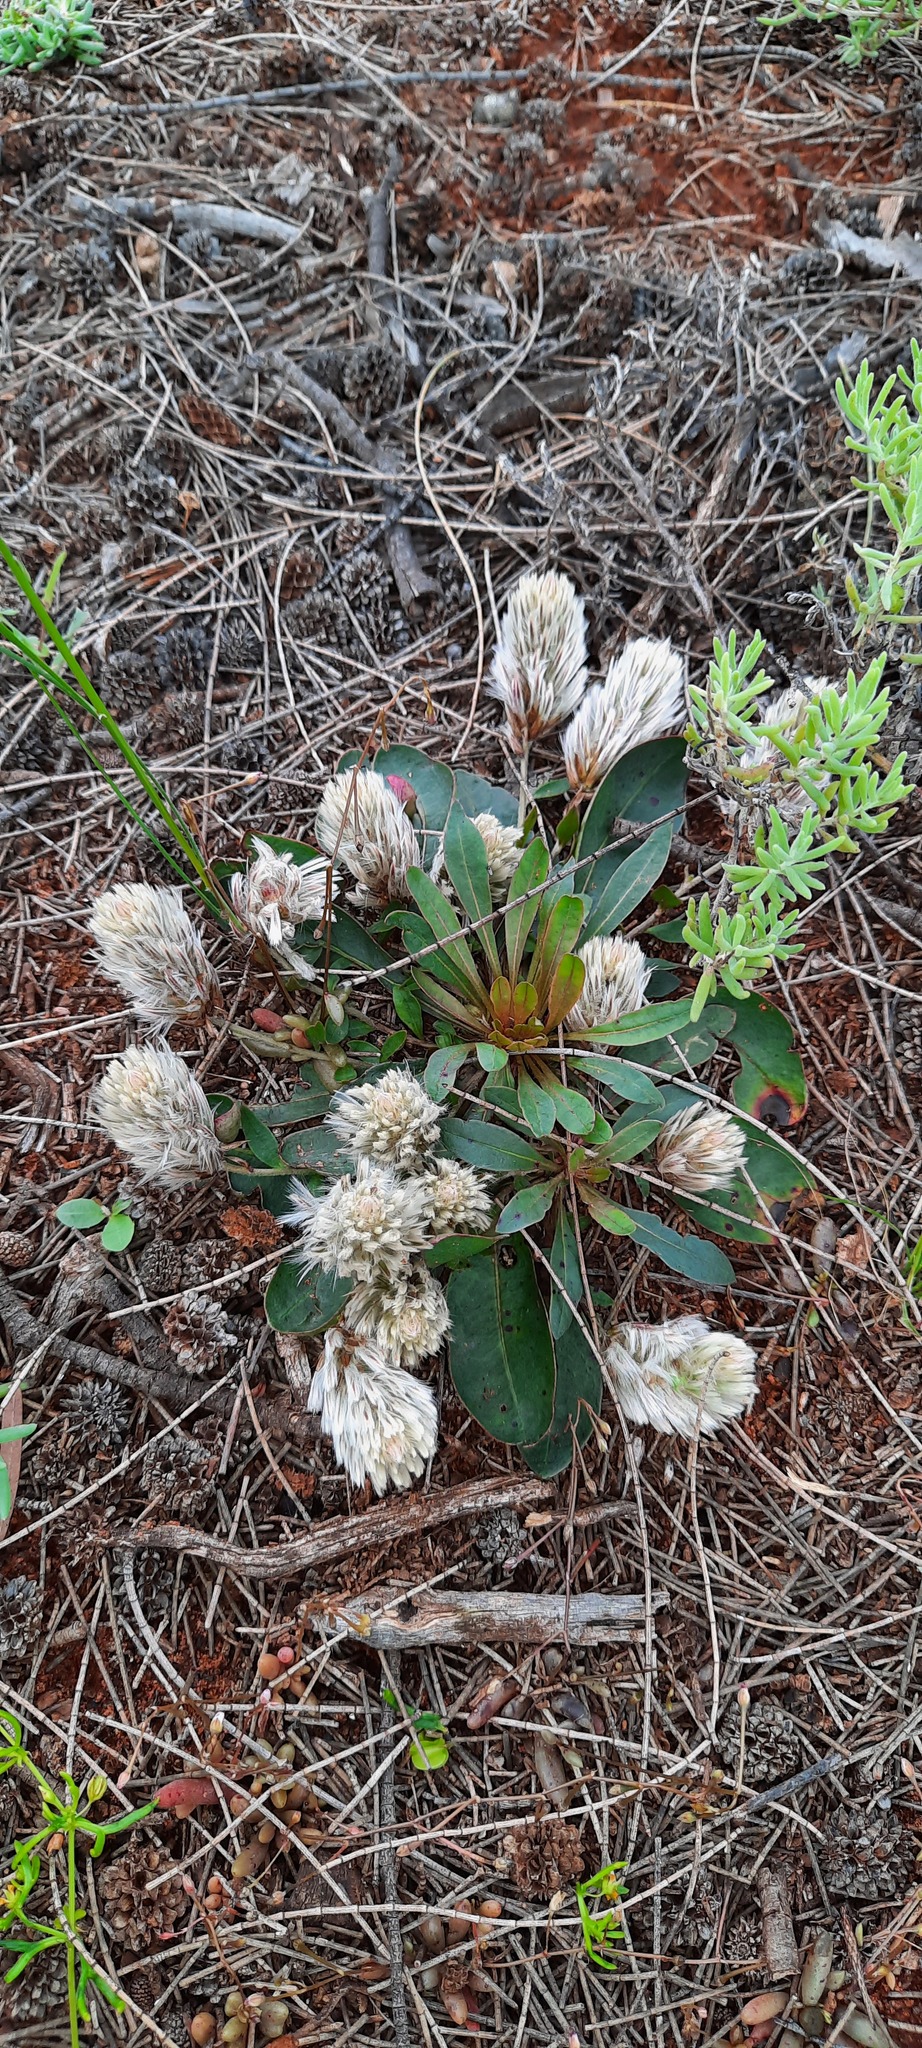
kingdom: Plantae
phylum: Tracheophyta
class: Magnoliopsida
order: Caryophyllales
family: Amaranthaceae
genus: Ptilotus
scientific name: Ptilotus seminudus
